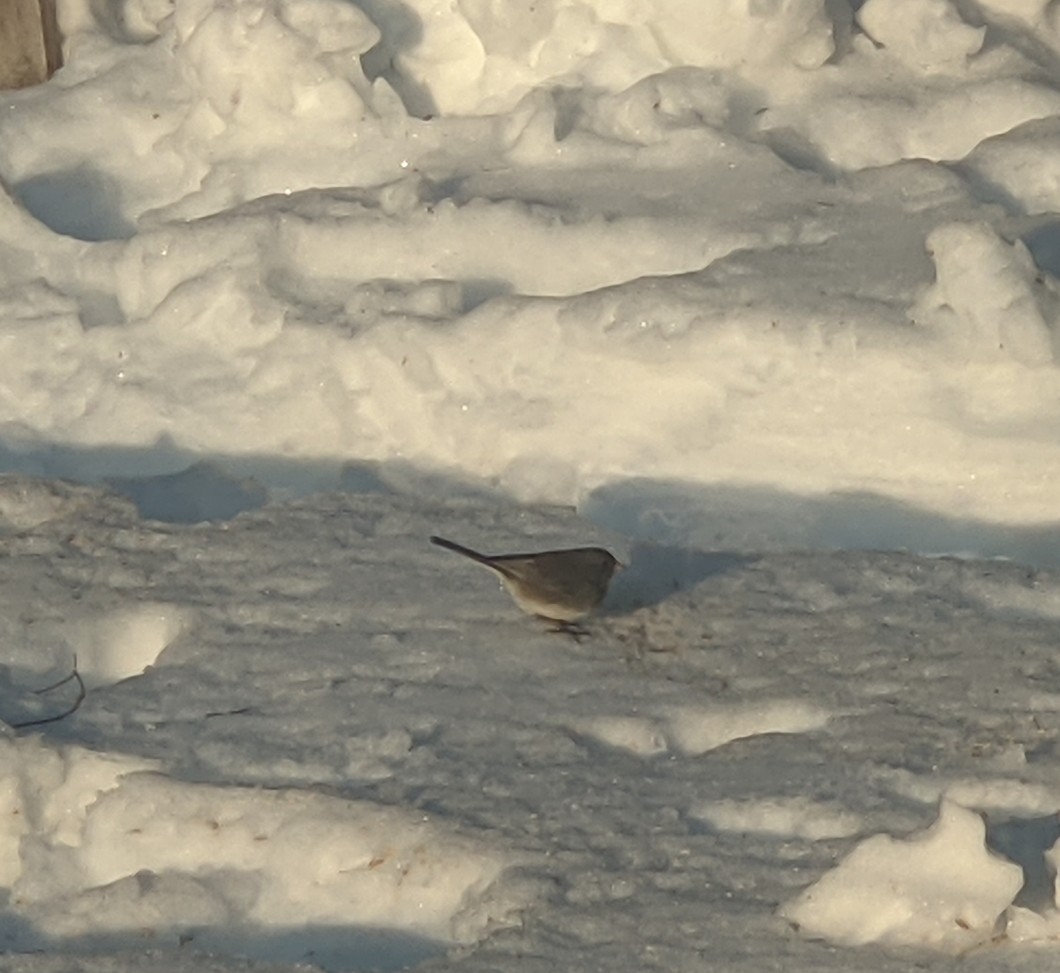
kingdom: Animalia
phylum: Chordata
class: Aves
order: Passeriformes
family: Passerellidae
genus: Junco
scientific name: Junco hyemalis
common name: Dark-eyed junco
